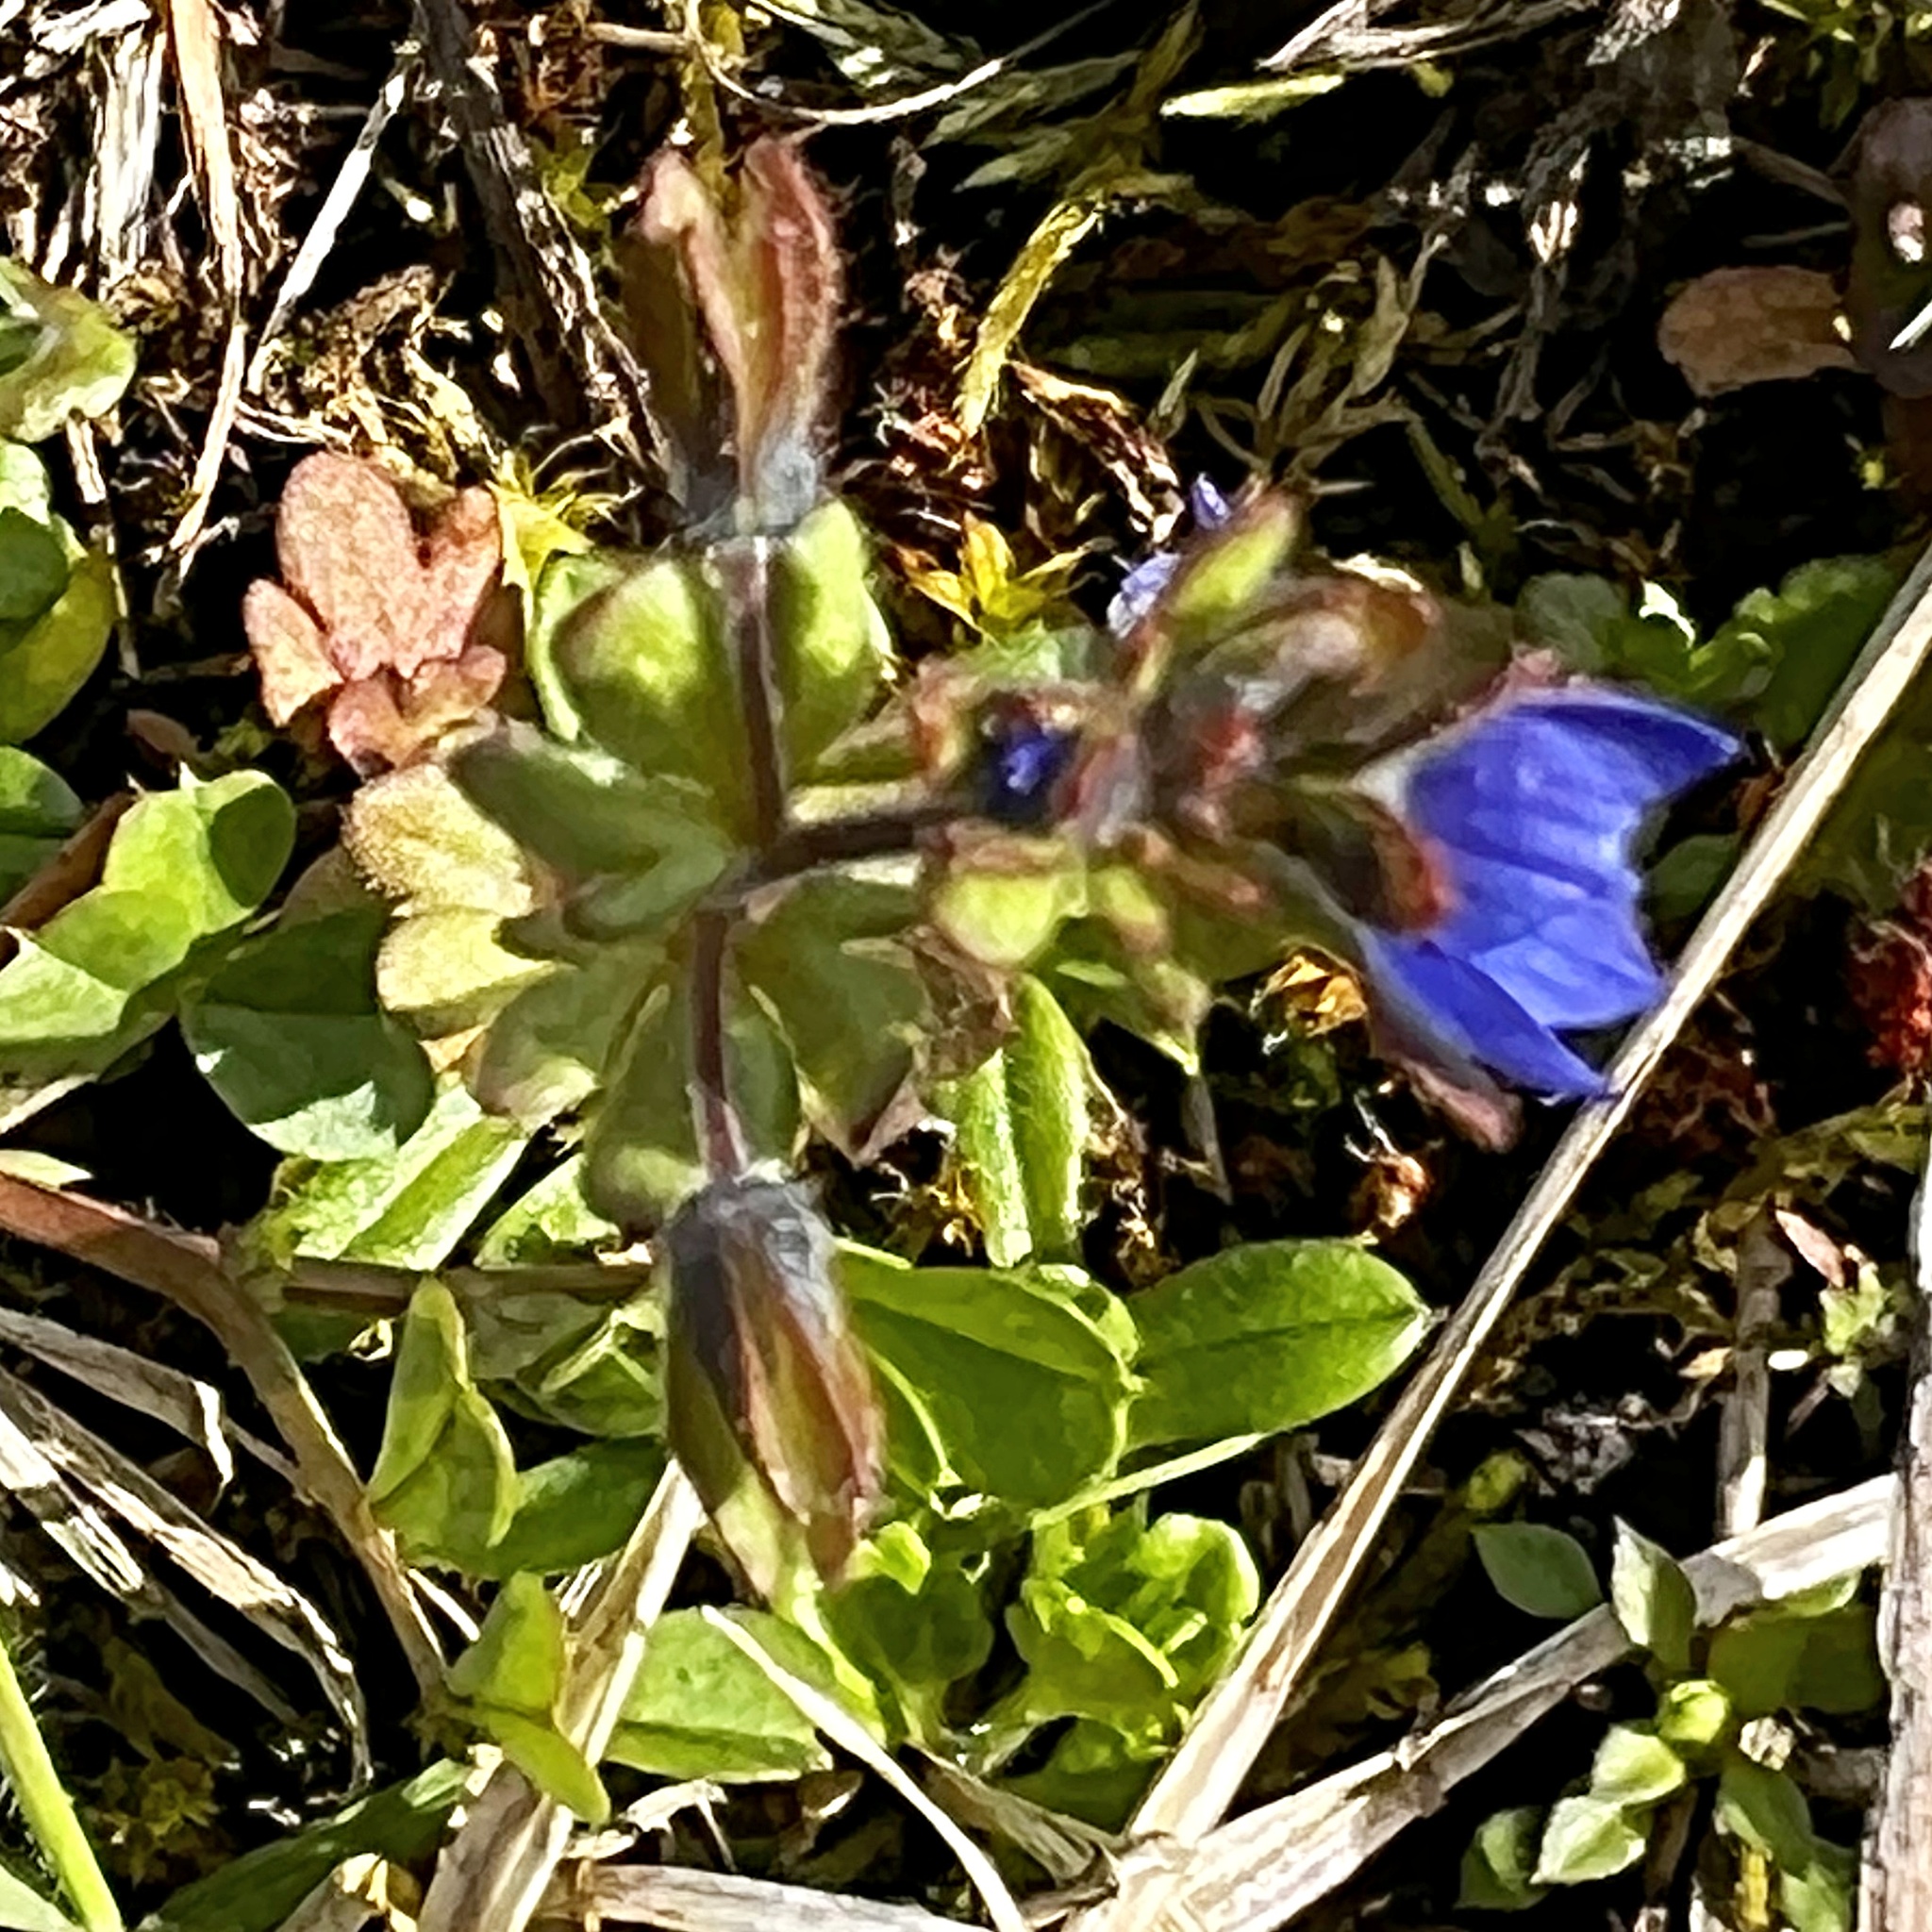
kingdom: Plantae
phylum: Tracheophyta
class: Magnoliopsida
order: Lamiales
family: Plantaginaceae
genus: Veronica
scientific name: Veronica triphyllos
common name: Fingered speedwell
